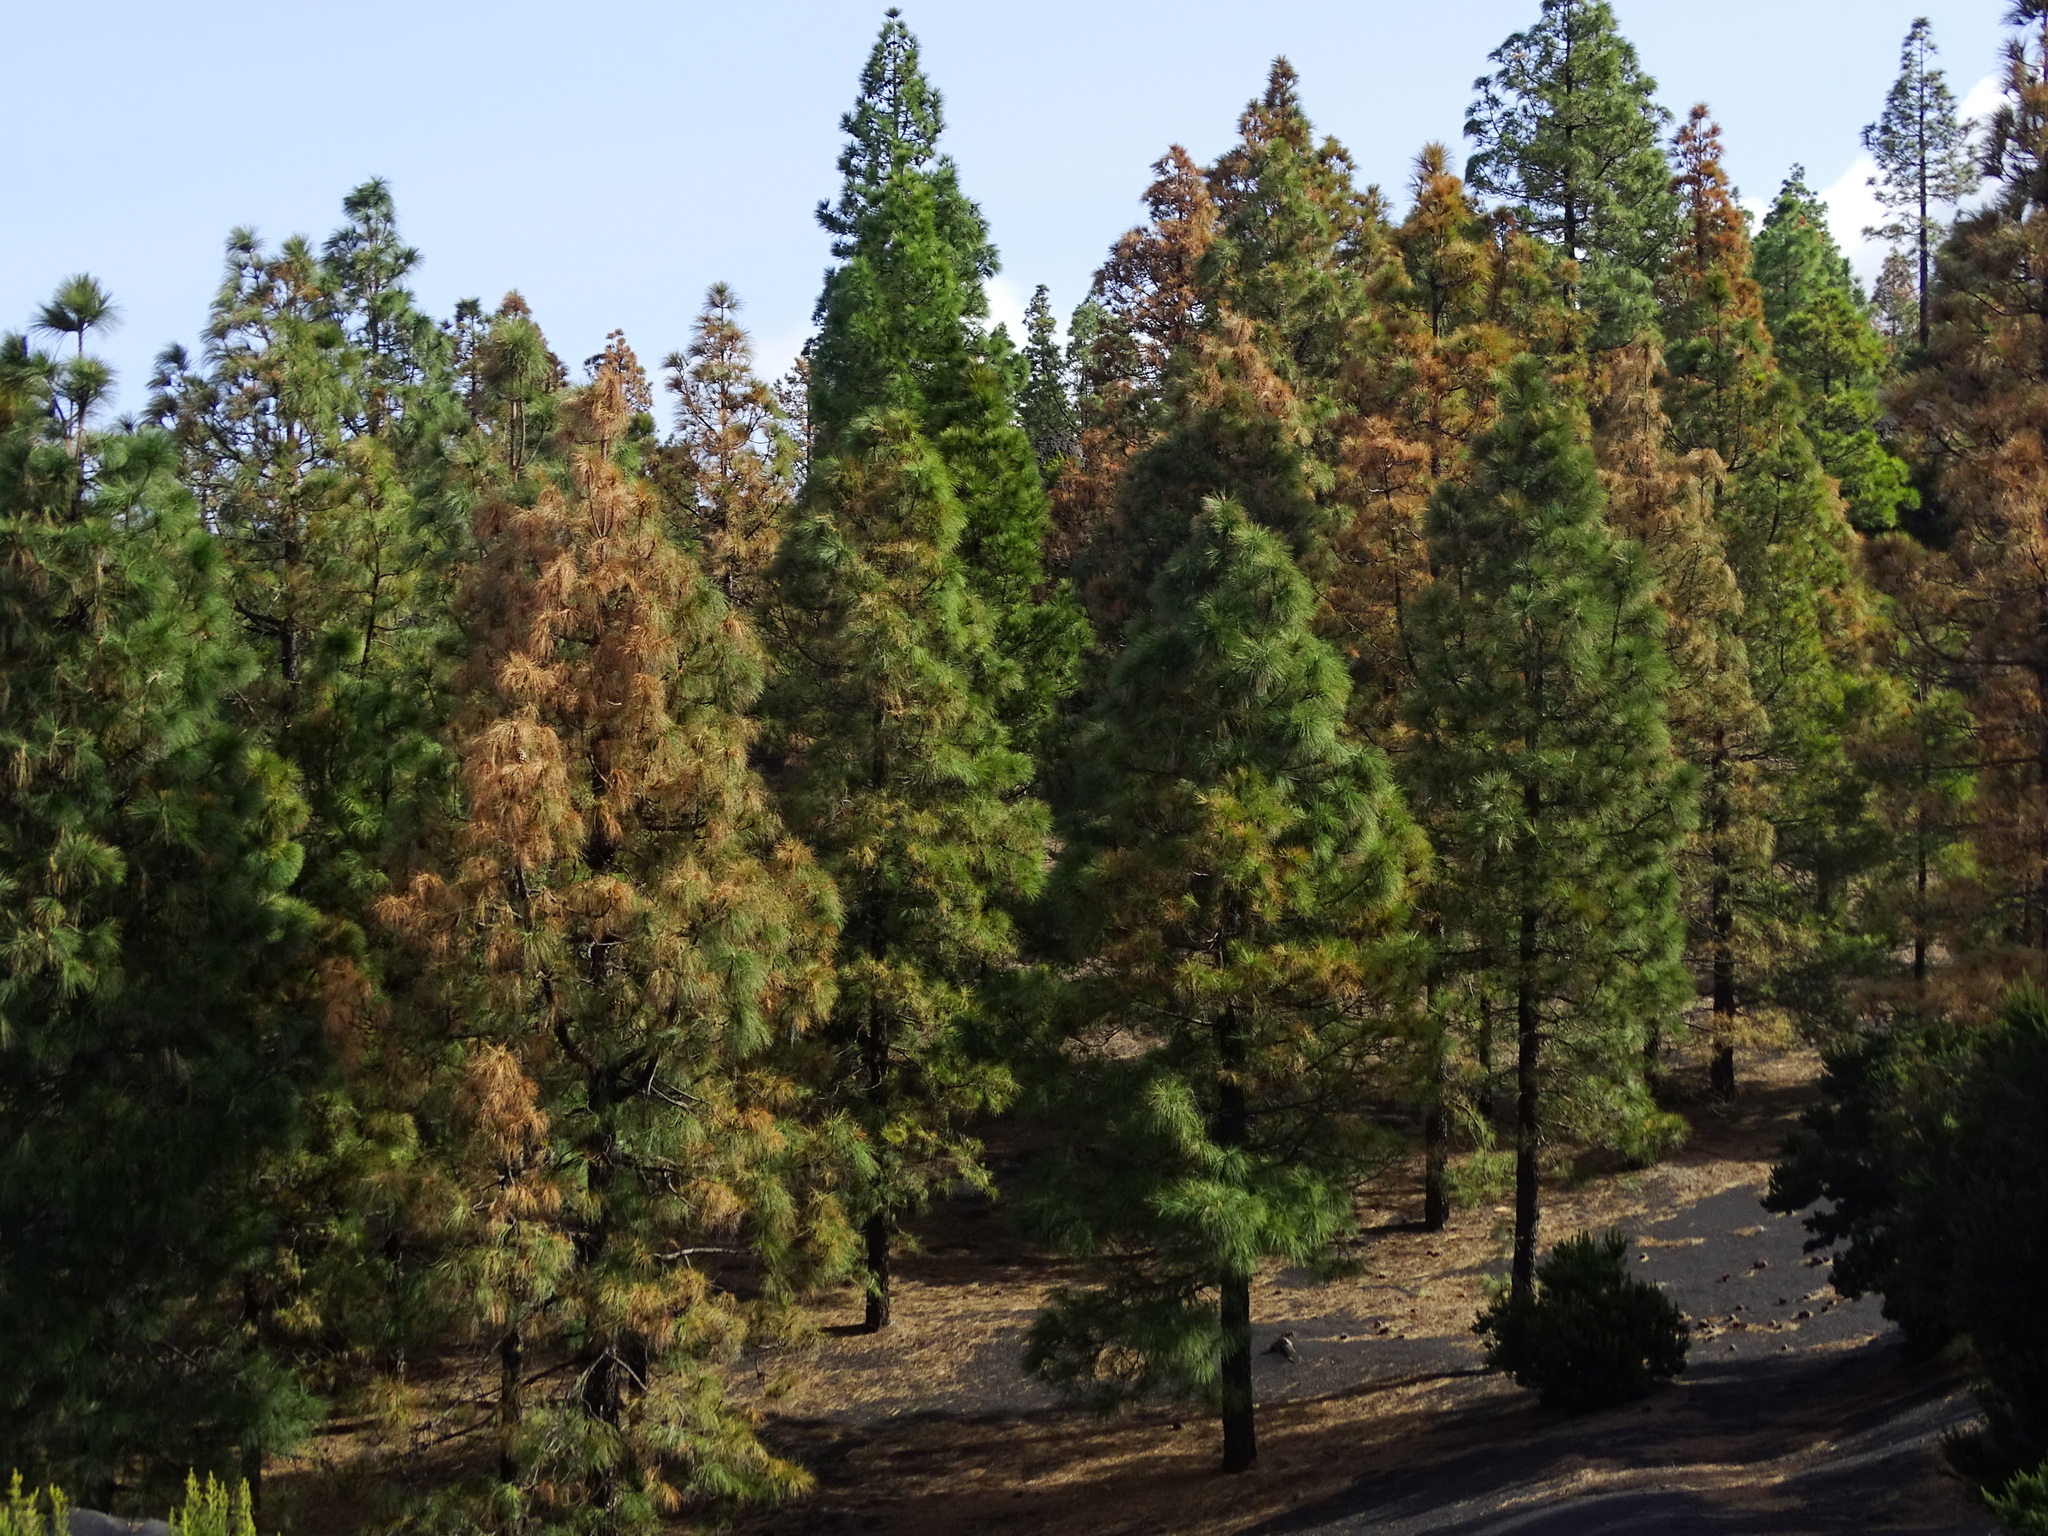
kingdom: Plantae
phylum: Tracheophyta
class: Pinopsida
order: Pinales
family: Pinaceae
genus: Pinus
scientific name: Pinus canariensis
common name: Canary islands pine
